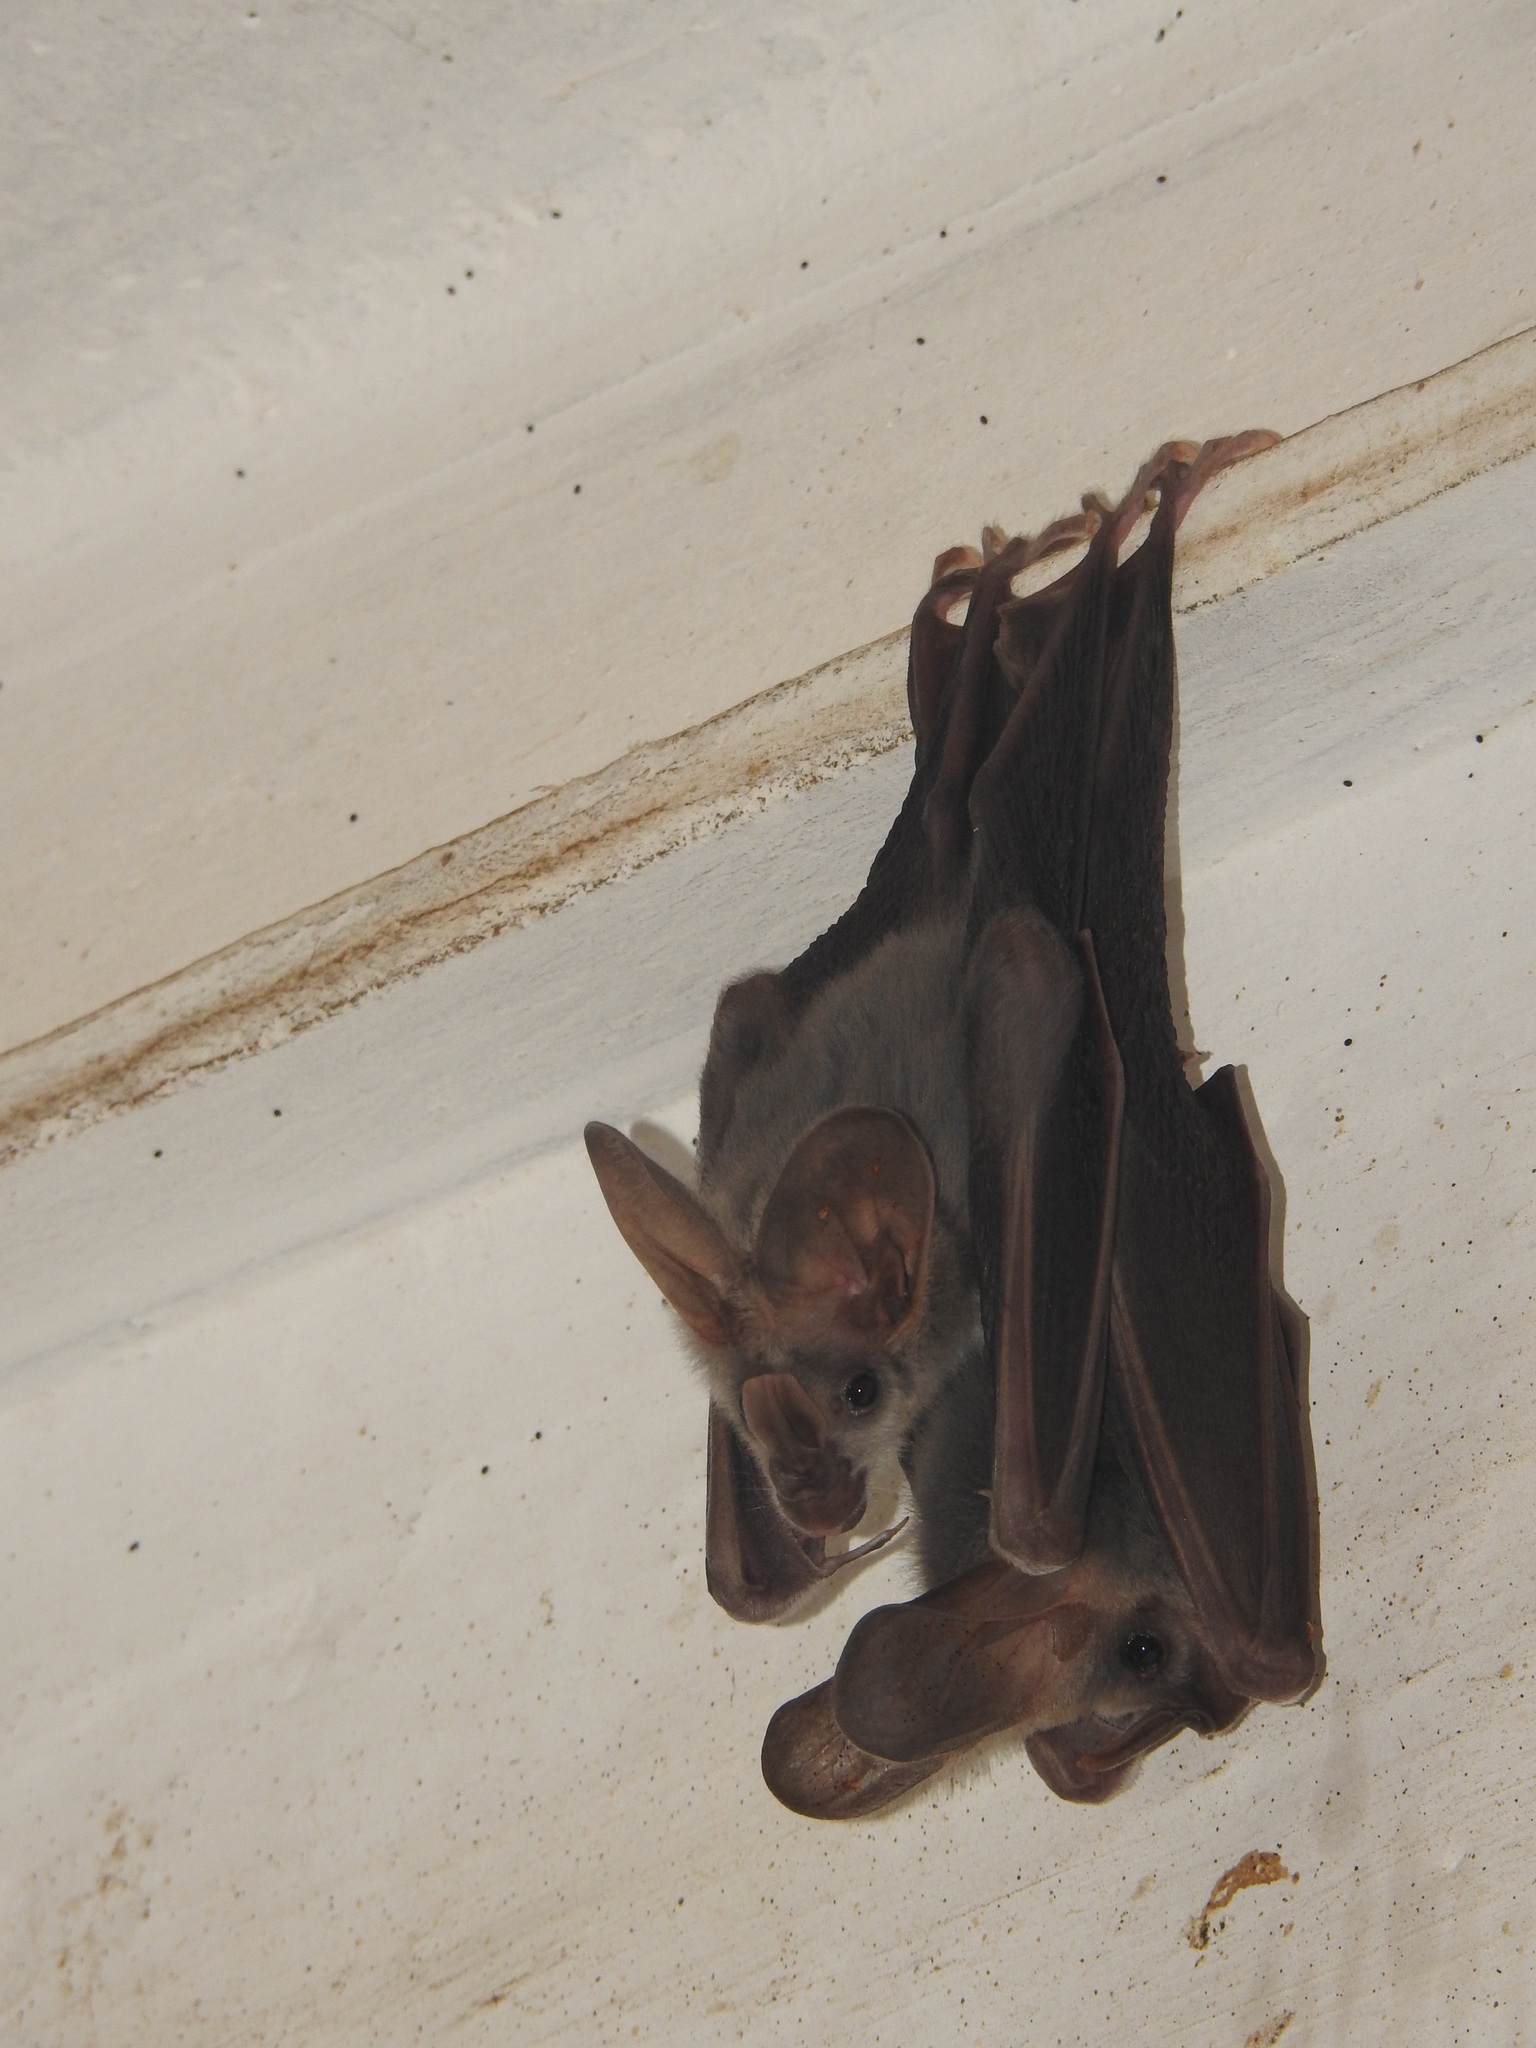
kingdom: Animalia
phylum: Chordata
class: Mammalia
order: Chiroptera
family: Megadermatidae
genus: Lyroderma
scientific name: Lyroderma lyra
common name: Greater false vampire bat
